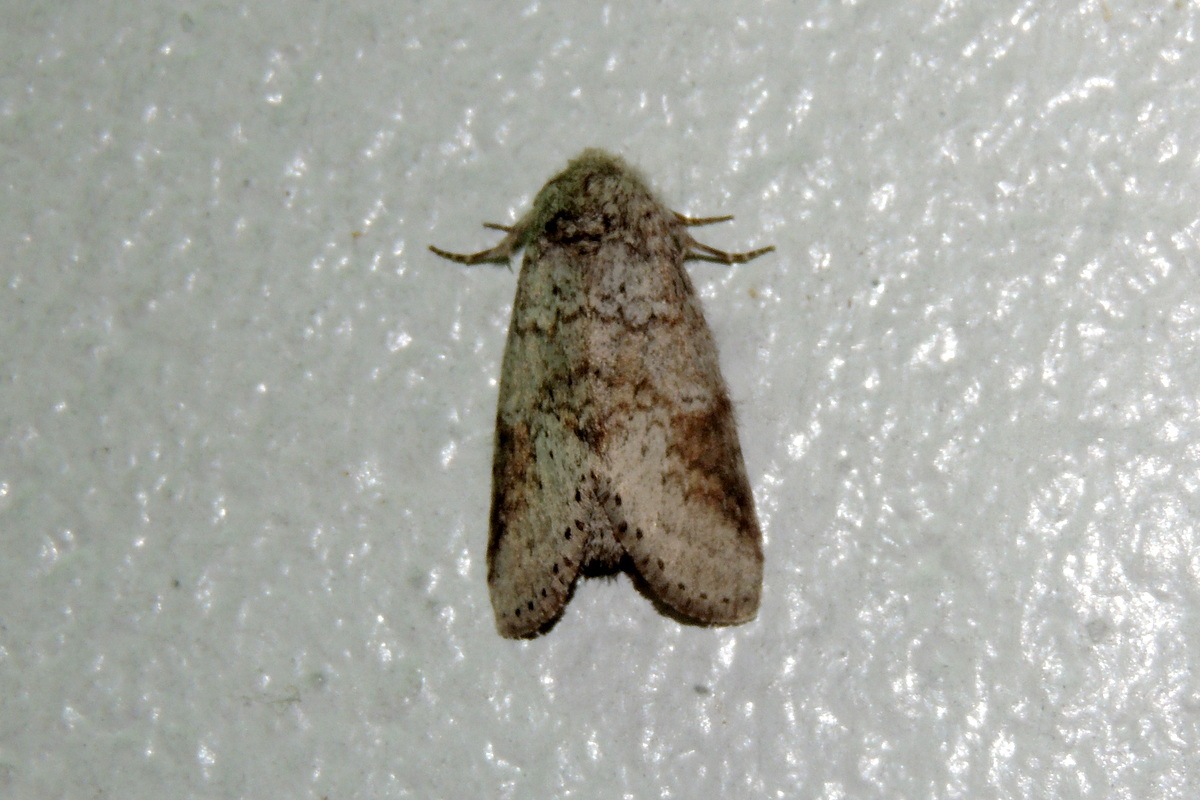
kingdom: Animalia
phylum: Arthropoda
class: Insecta
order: Lepidoptera
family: Notodontidae
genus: Lochmaeus
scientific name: Lochmaeus bilineata
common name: Double-lined prominent
